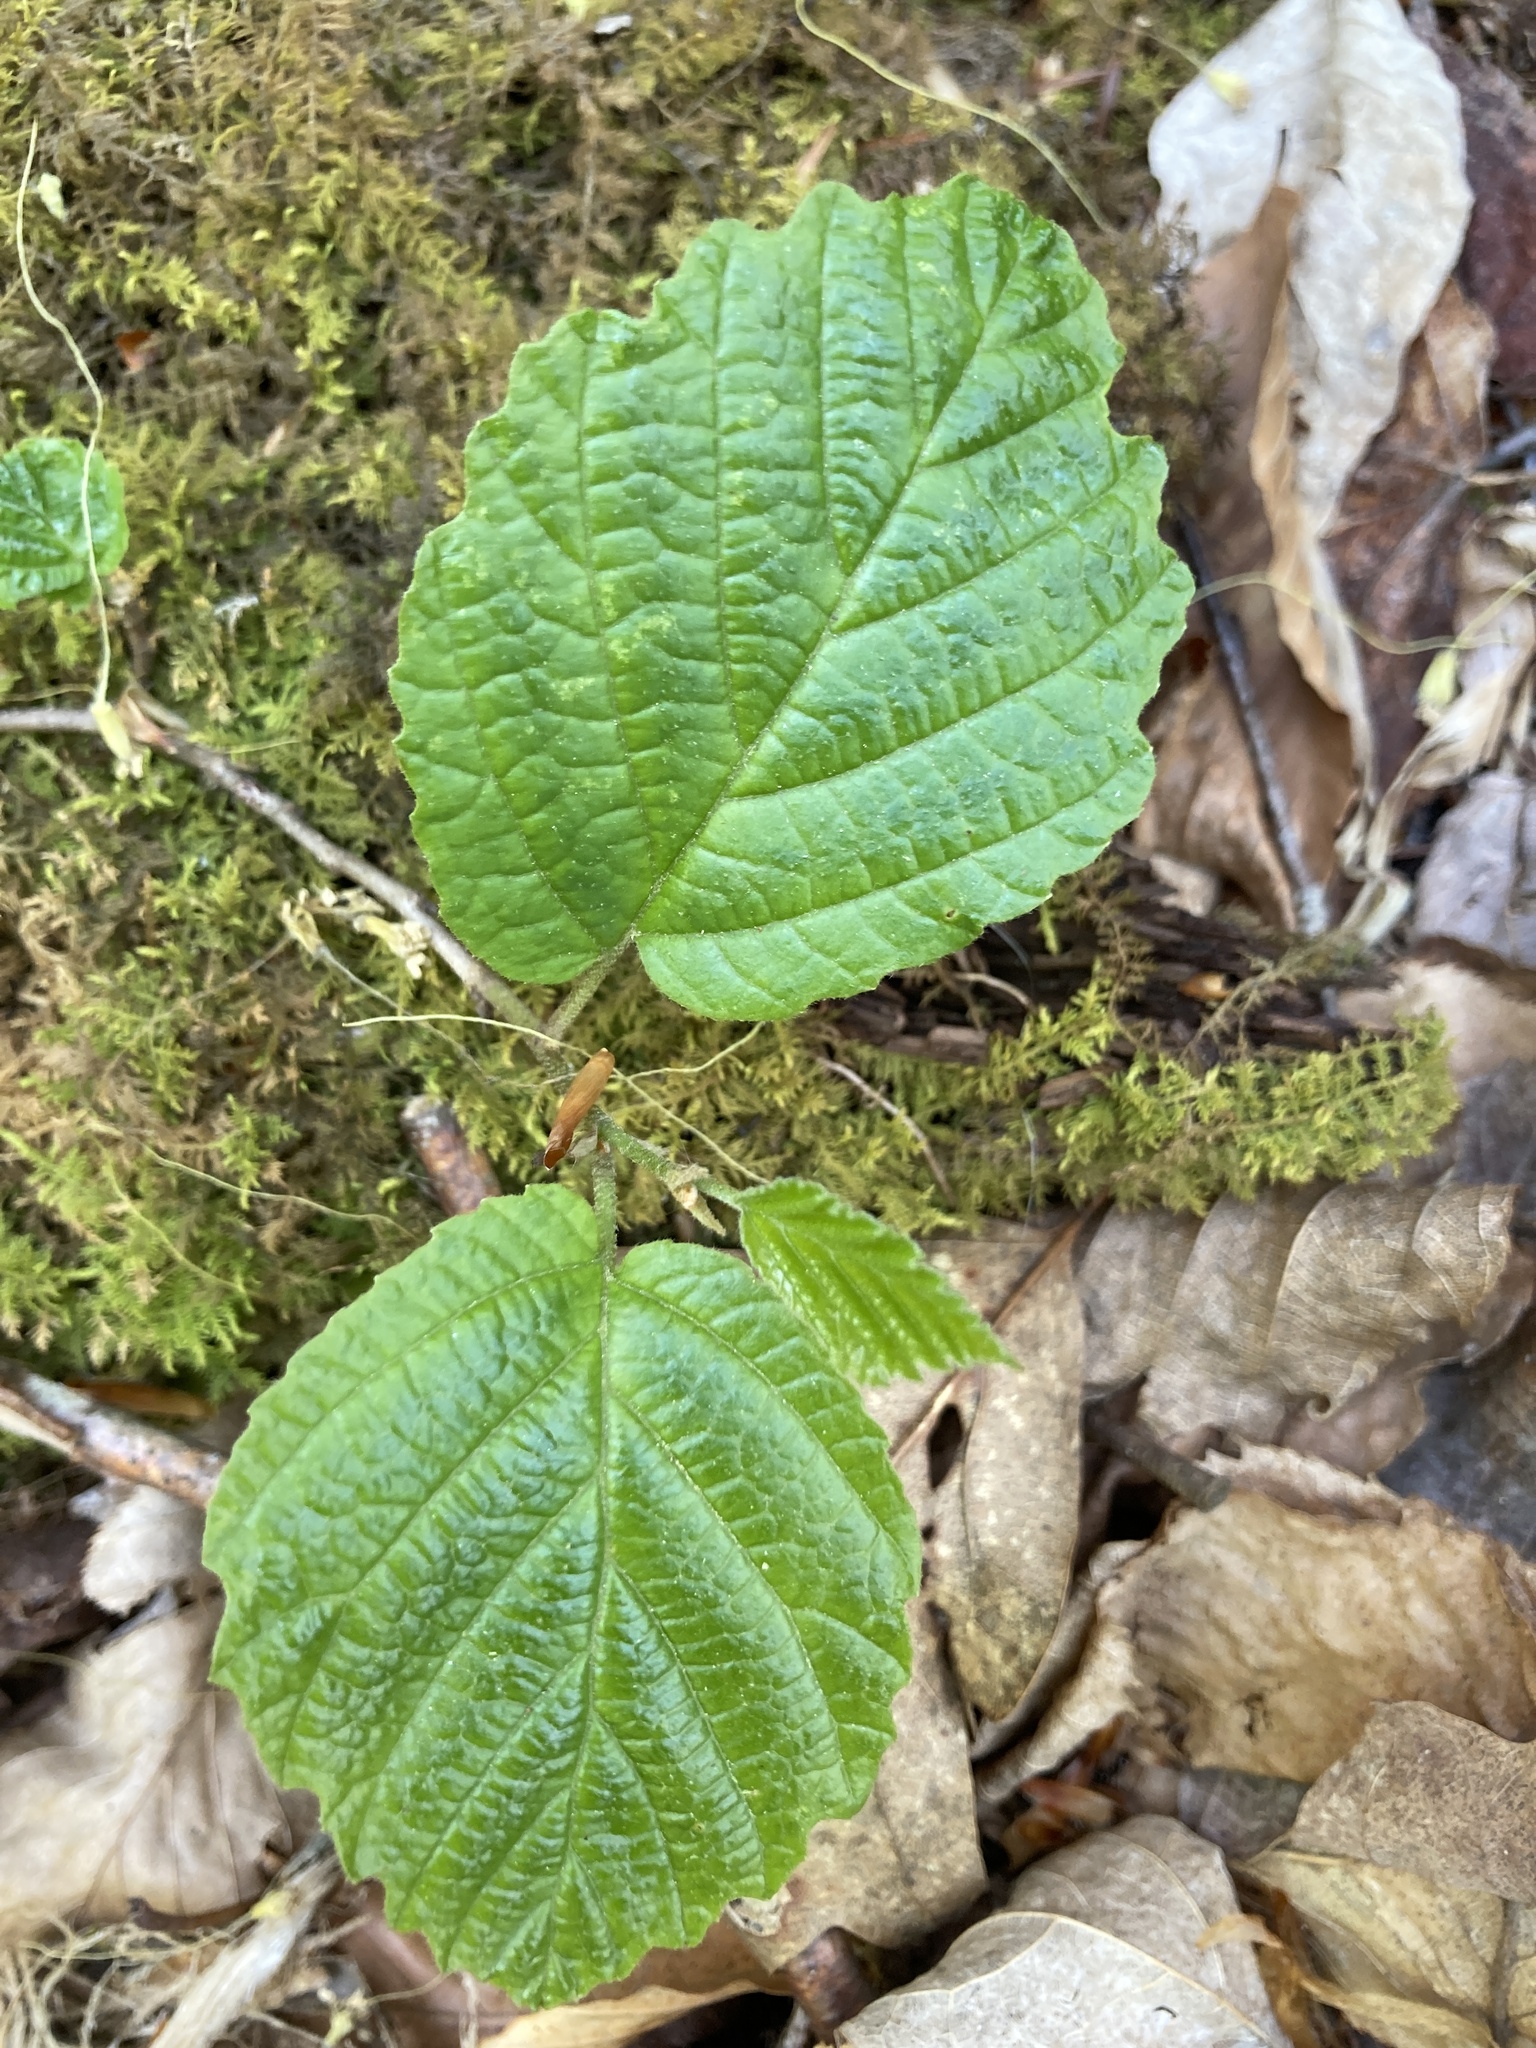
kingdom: Plantae
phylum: Tracheophyta
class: Magnoliopsida
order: Saxifragales
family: Hamamelidaceae
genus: Hamamelis
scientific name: Hamamelis virginiana
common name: Witch-hazel
